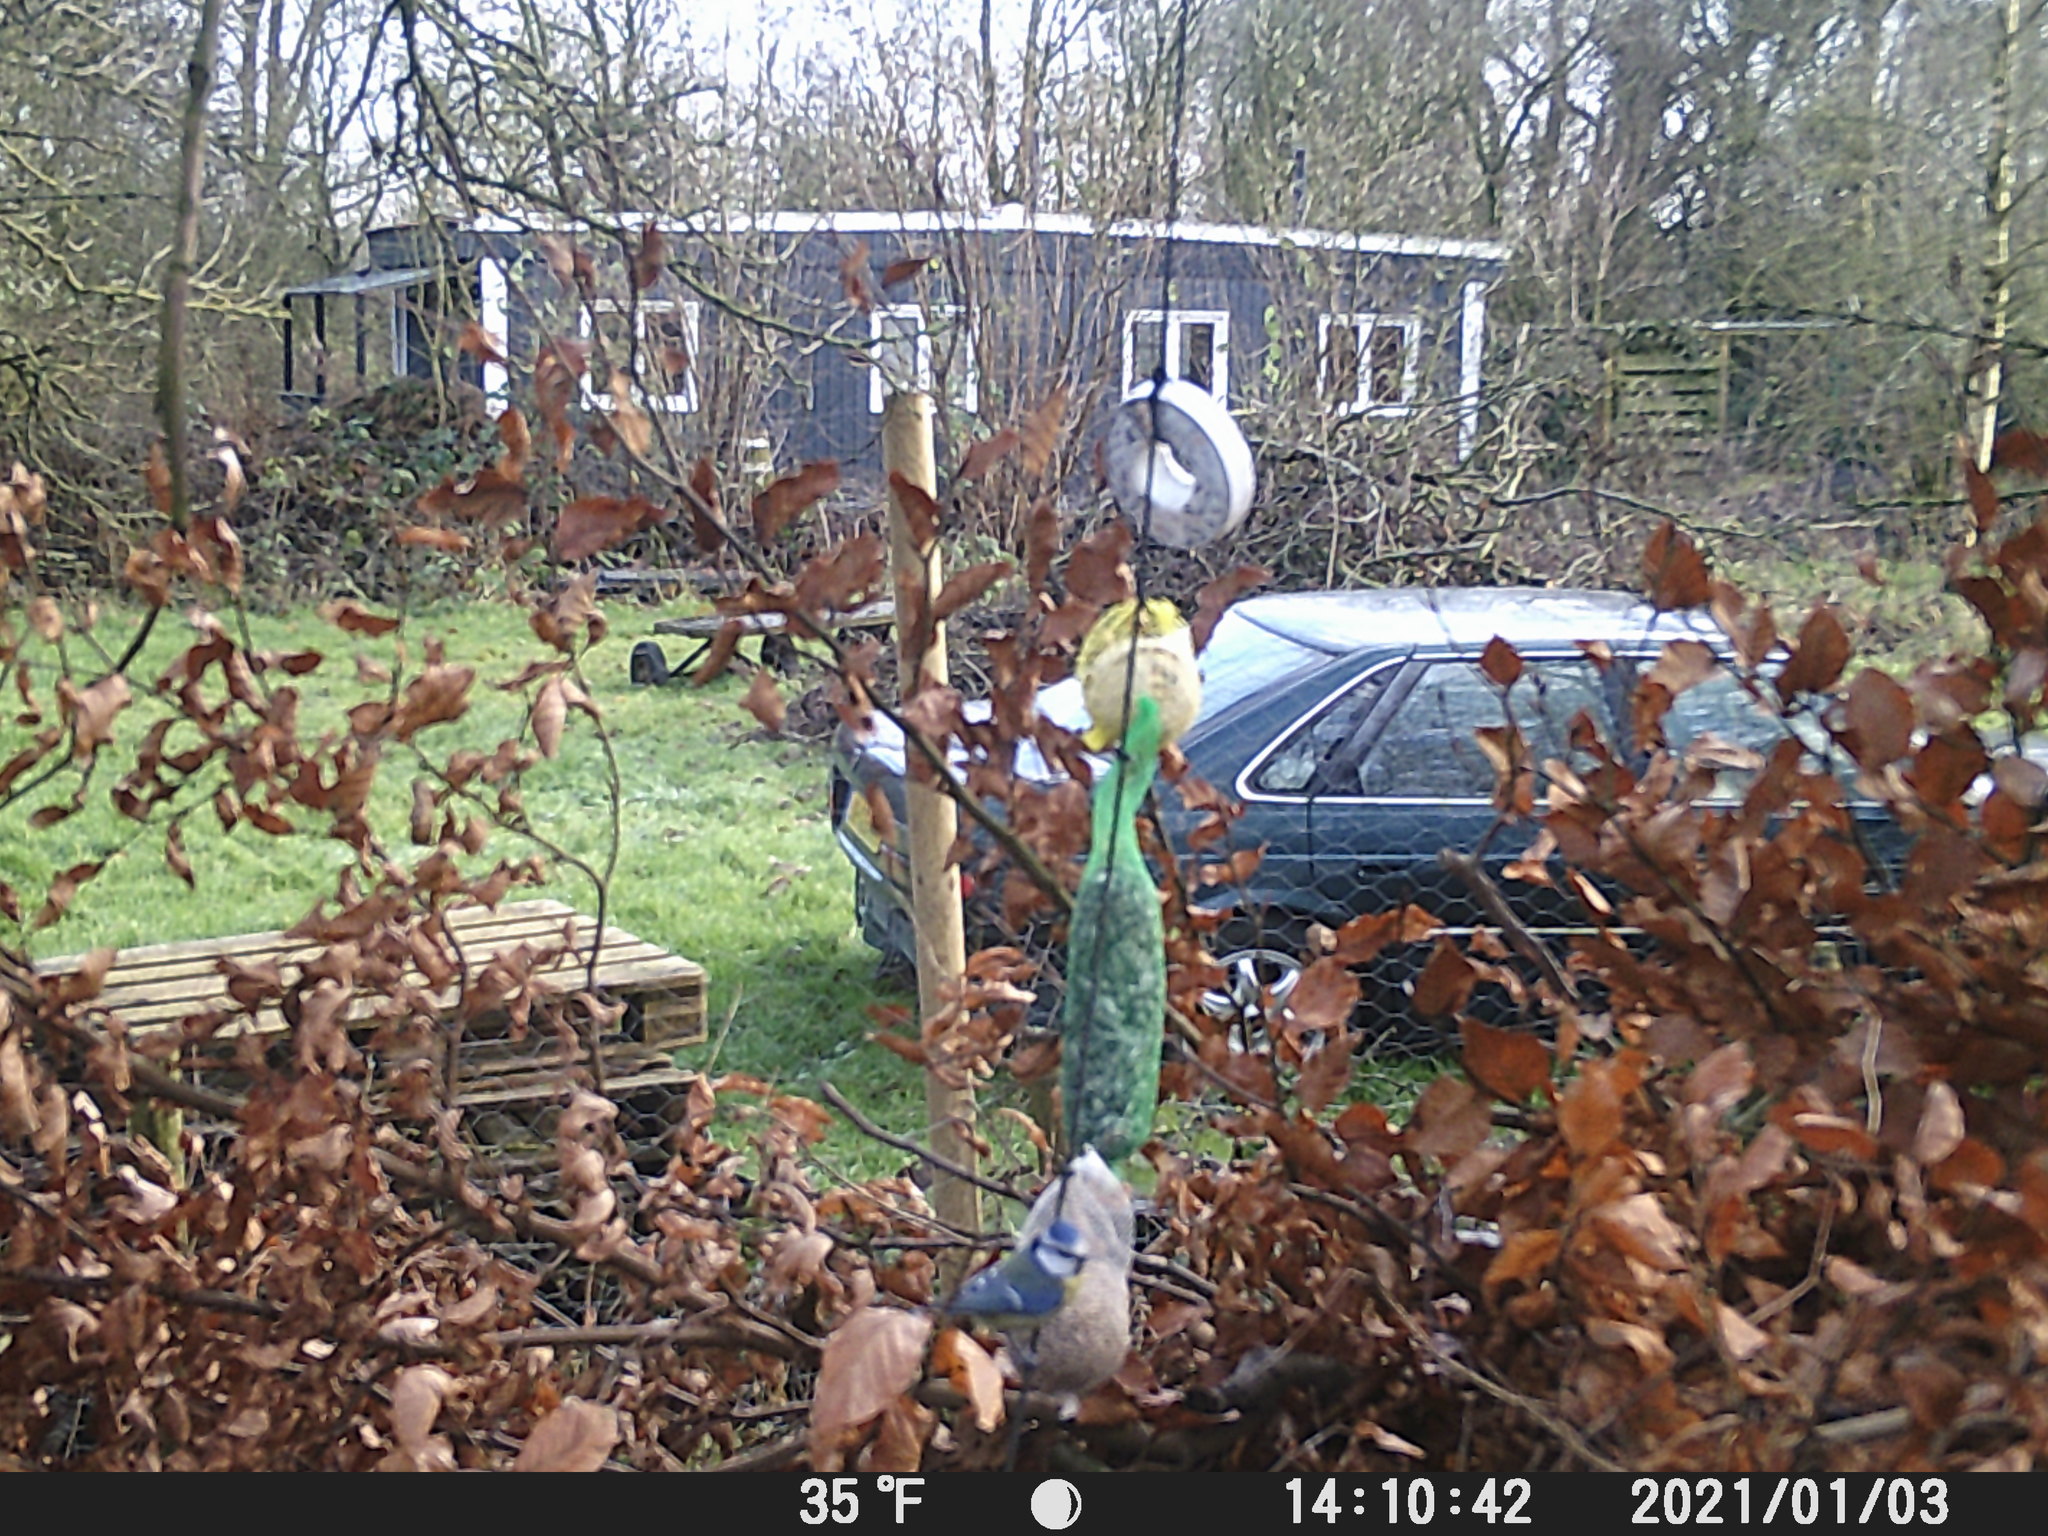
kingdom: Animalia
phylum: Chordata
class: Aves
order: Passeriformes
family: Paridae
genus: Cyanistes
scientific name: Cyanistes caeruleus
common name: Eurasian blue tit
